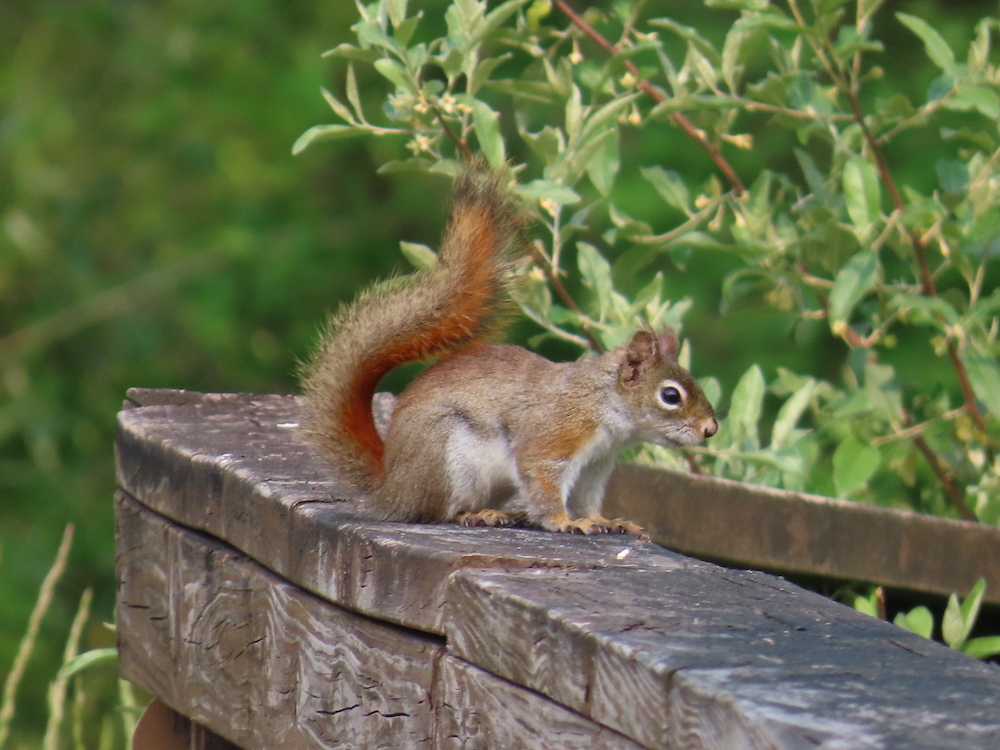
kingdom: Animalia
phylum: Chordata
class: Mammalia
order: Rodentia
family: Sciuridae
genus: Tamiasciurus
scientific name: Tamiasciurus hudsonicus
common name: Red squirrel
